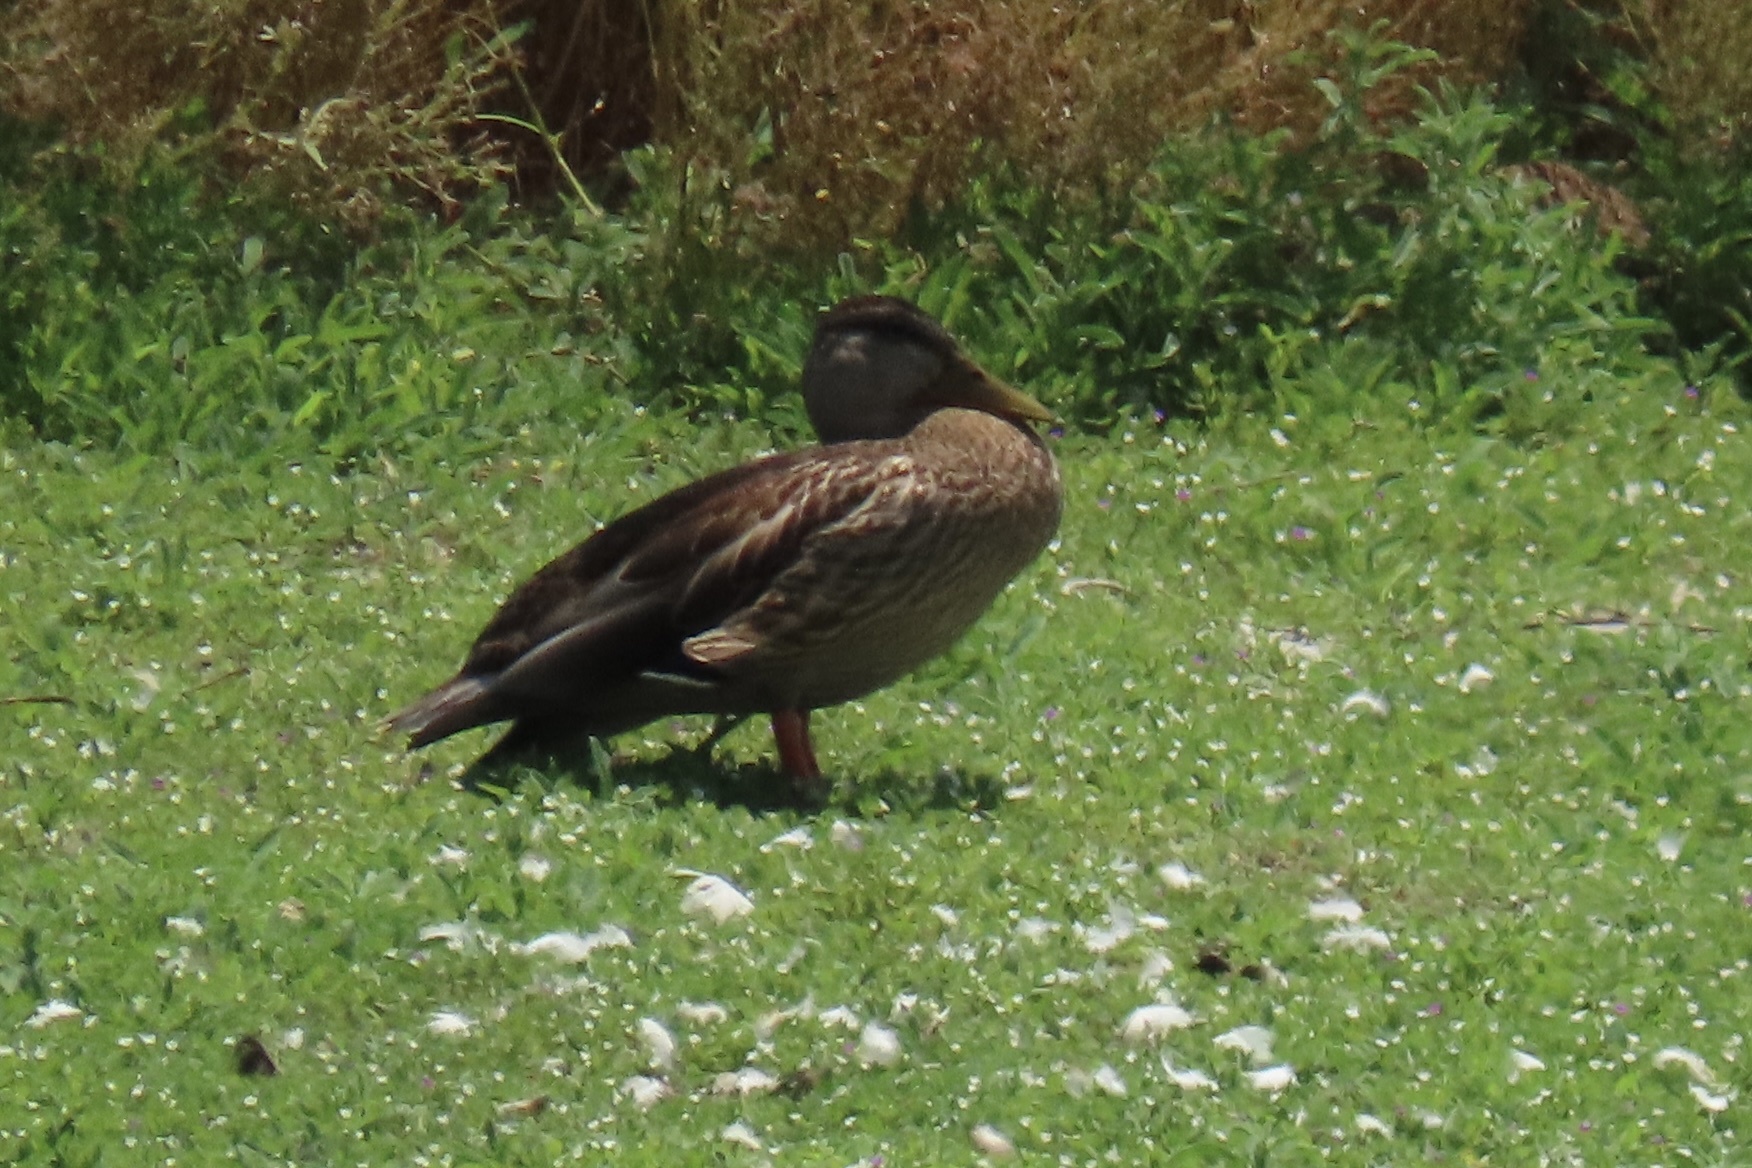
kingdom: Animalia
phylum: Chordata
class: Aves
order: Anseriformes
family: Anatidae
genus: Anas
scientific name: Anas platyrhynchos
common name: Mallard
